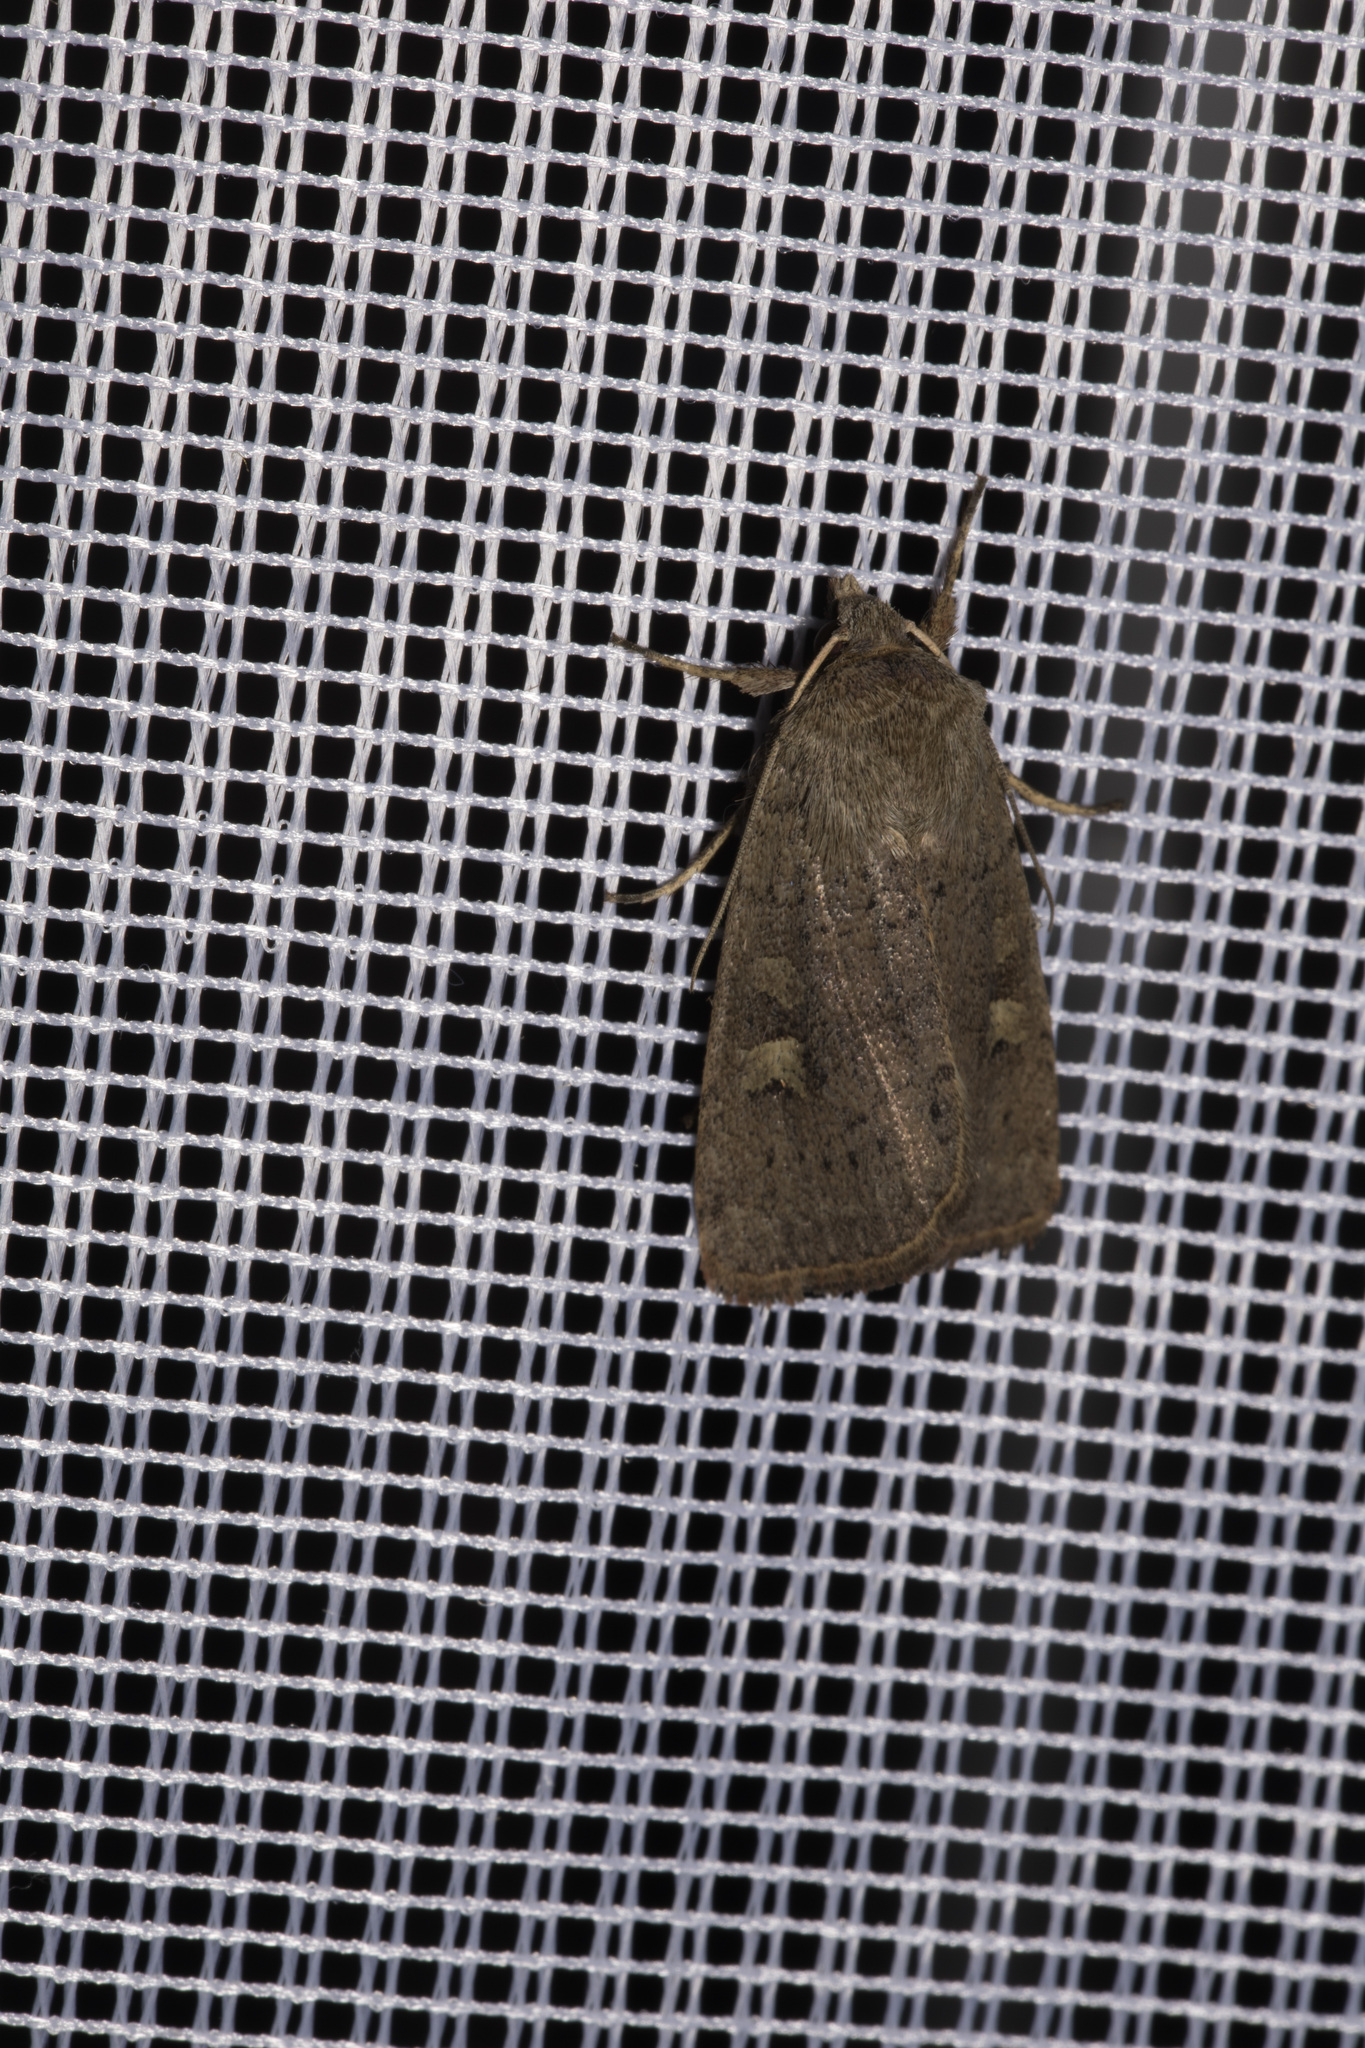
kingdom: Animalia
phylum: Arthropoda
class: Insecta
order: Lepidoptera
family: Noctuidae
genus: Xestia
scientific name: Xestia xanthographa
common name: Square-spot rustic
